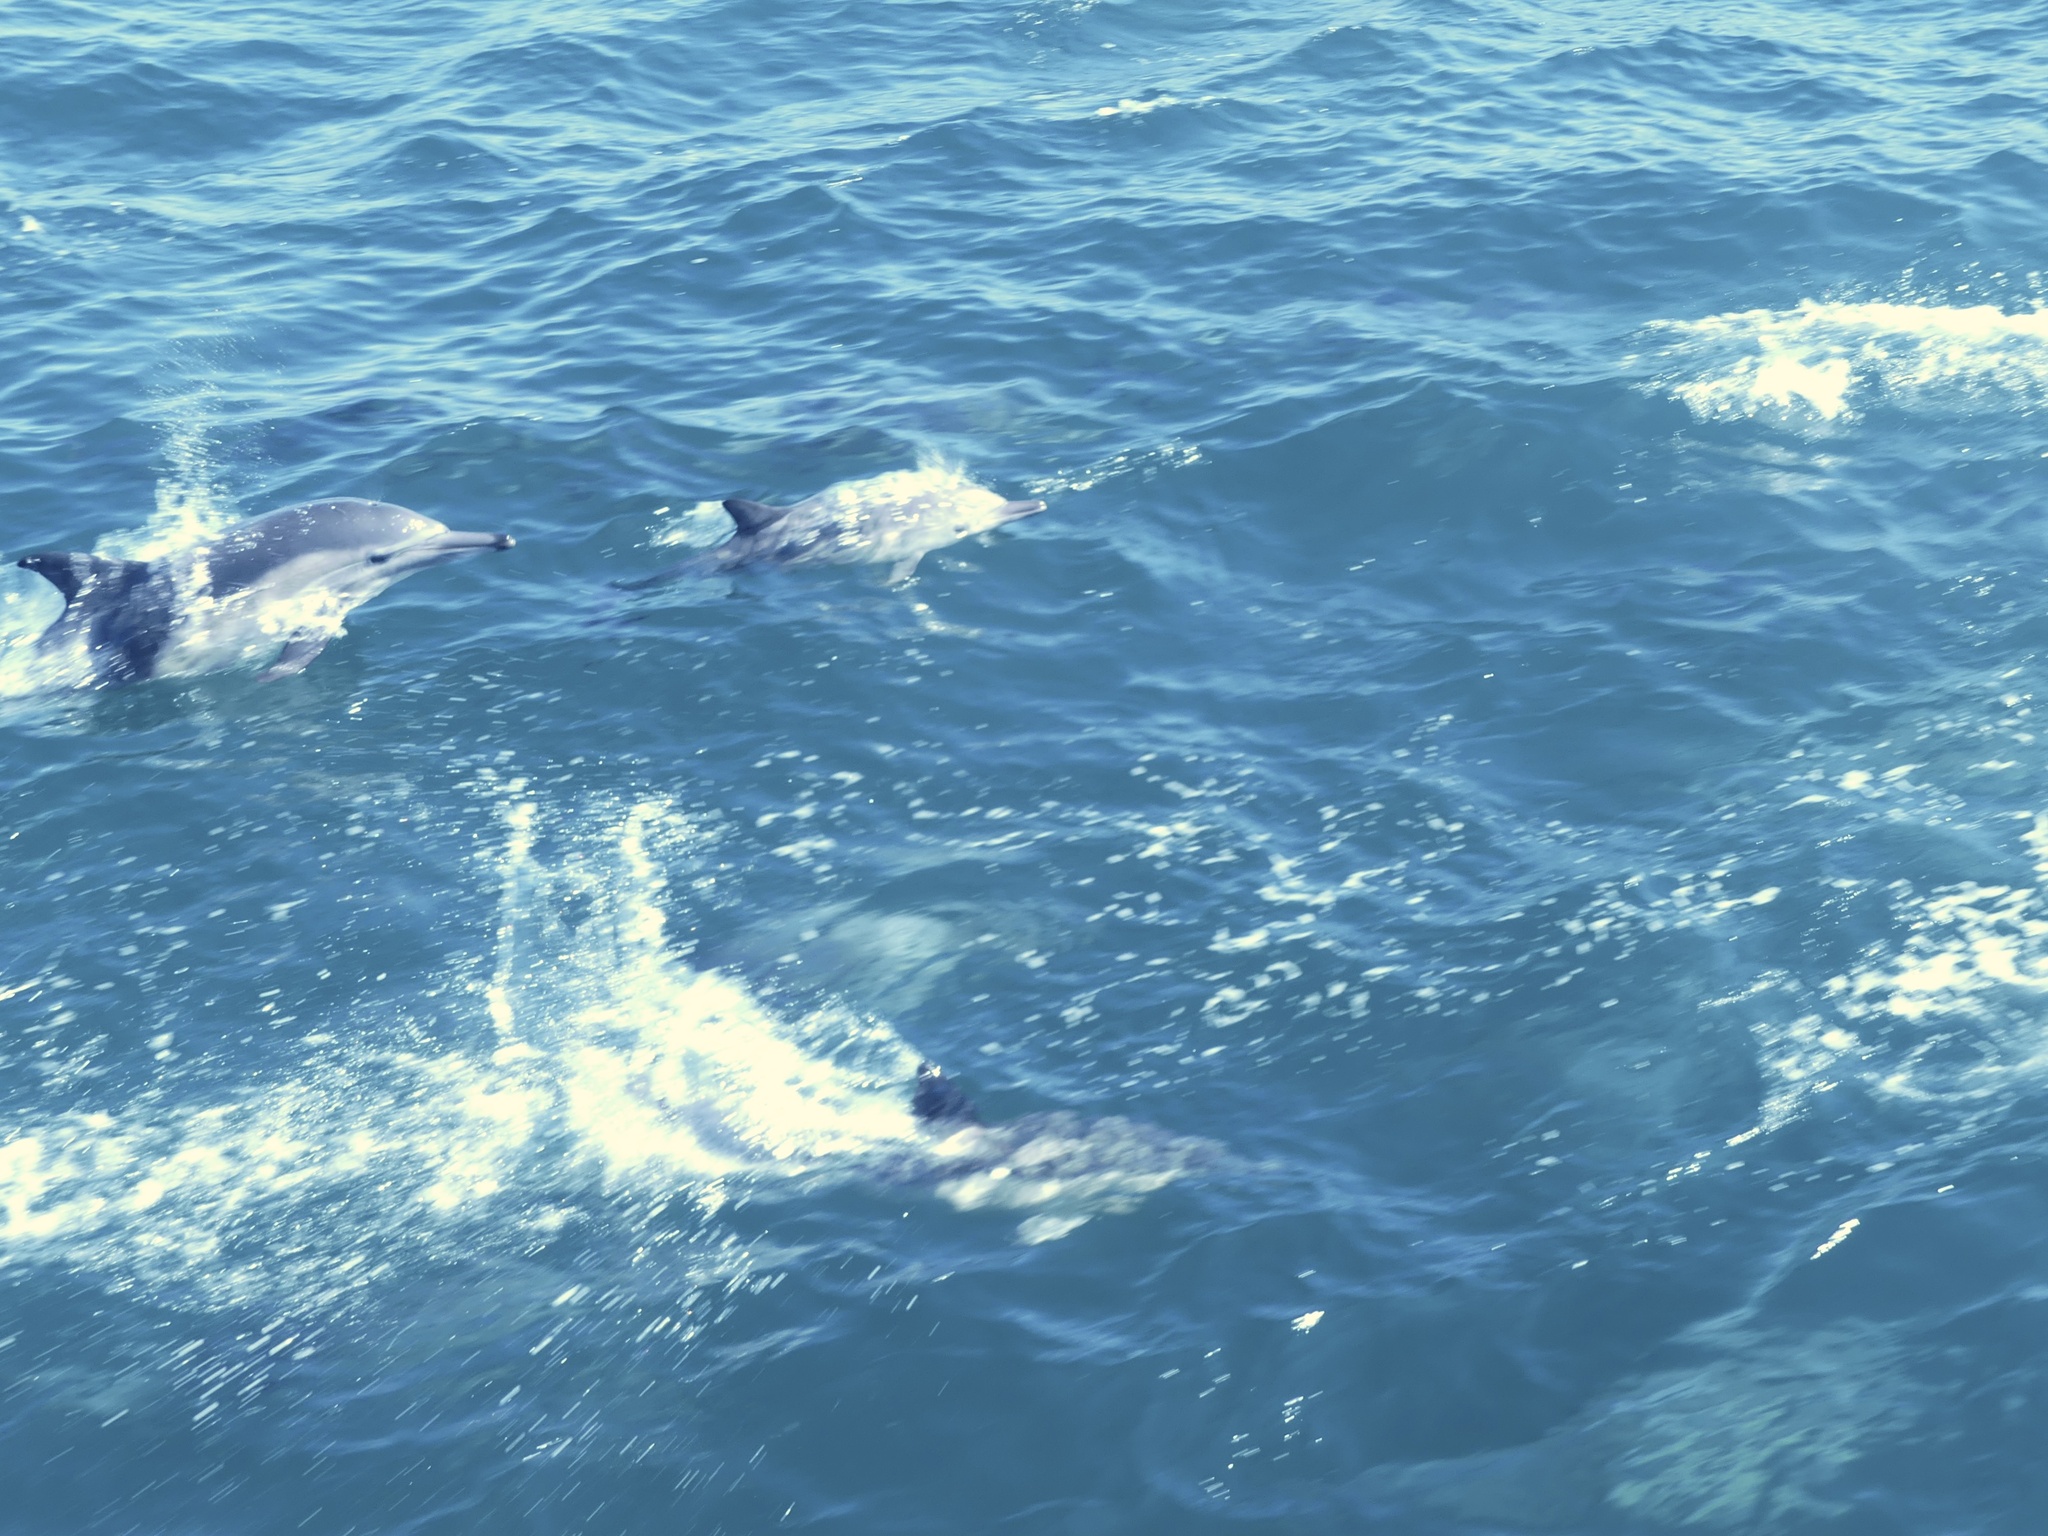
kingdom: Animalia
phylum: Chordata
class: Mammalia
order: Cetacea
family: Delphinidae
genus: Delphinus
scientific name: Delphinus delphis
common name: Common dolphin
